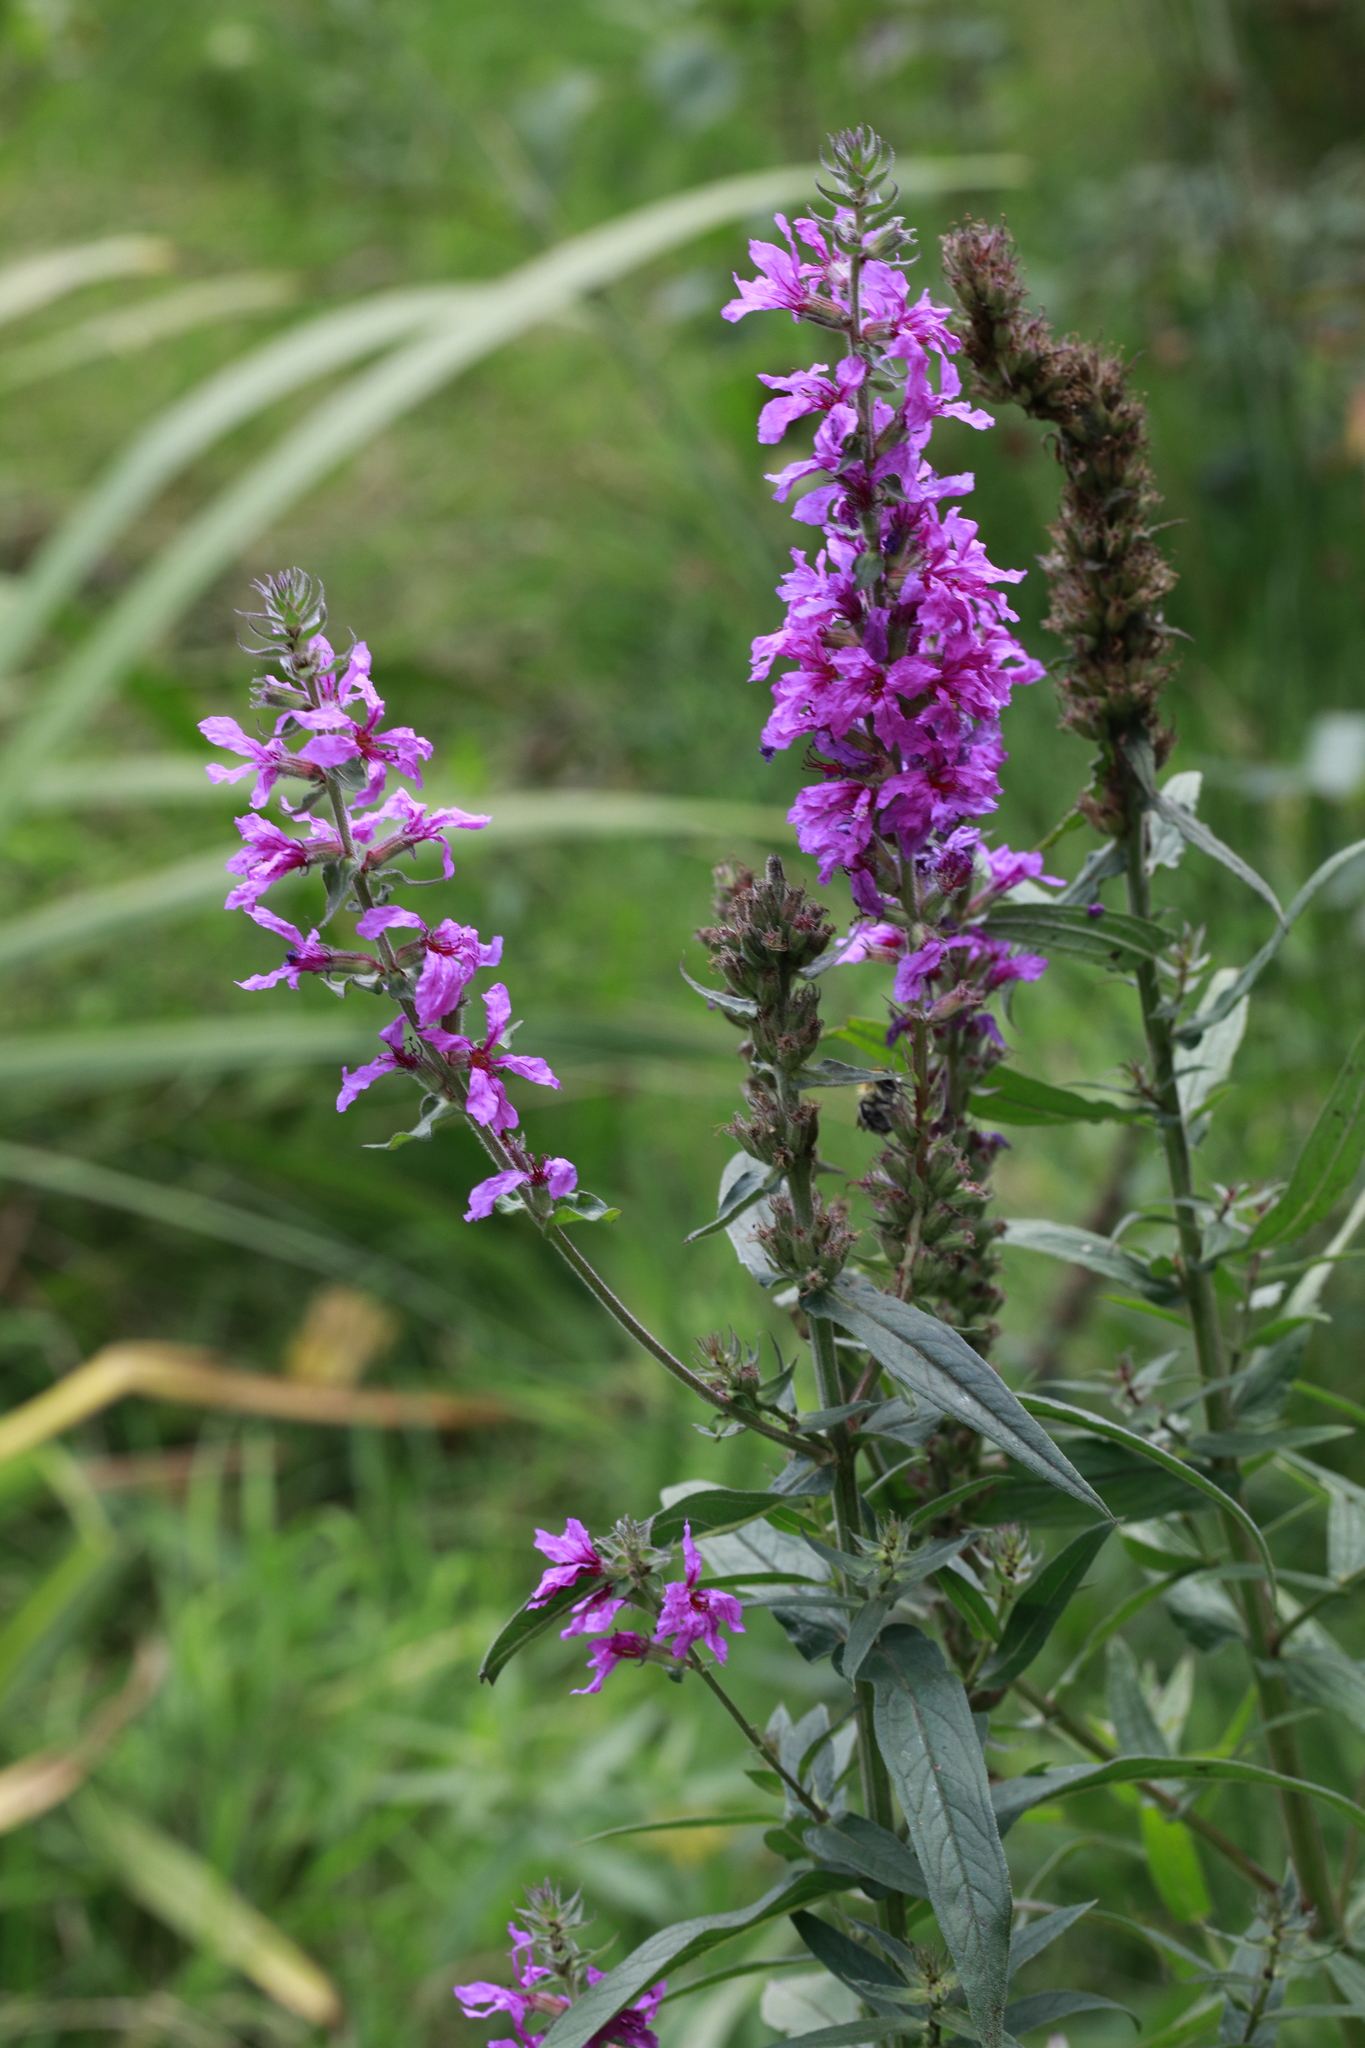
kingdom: Plantae
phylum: Tracheophyta
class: Magnoliopsida
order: Myrtales
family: Lythraceae
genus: Lythrum
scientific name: Lythrum salicaria
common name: Purple loosestrife
